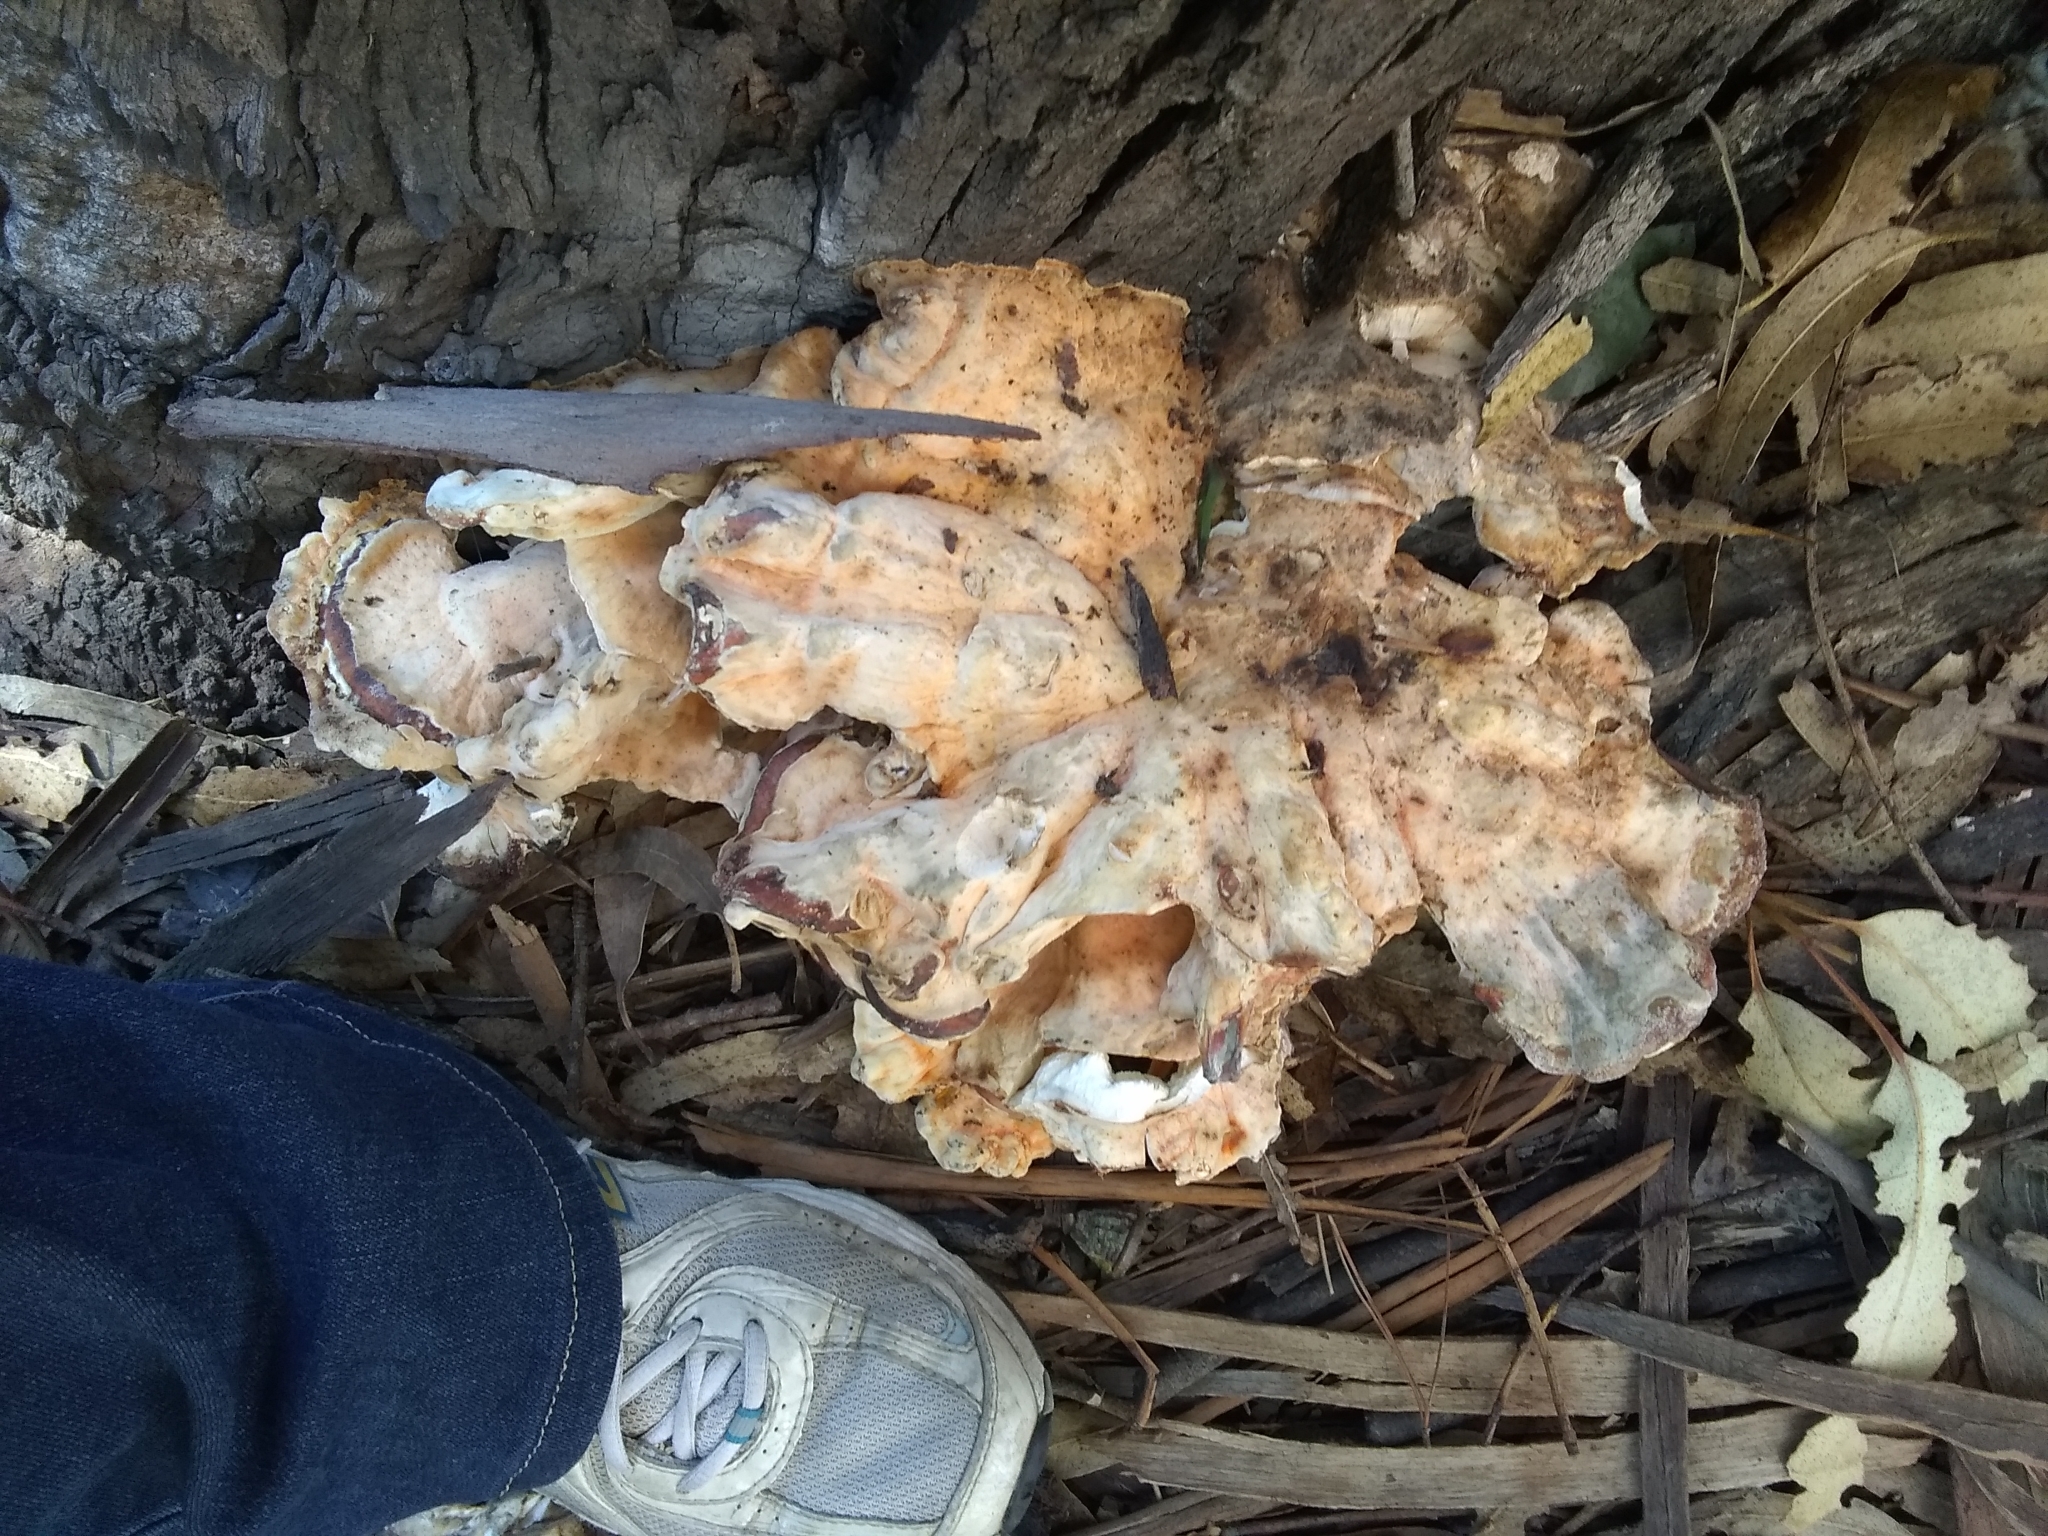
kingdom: Fungi
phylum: Basidiomycota
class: Agaricomycetes
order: Polyporales
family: Laetiporaceae
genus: Laetiporus
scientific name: Laetiporus gilbertsonii
